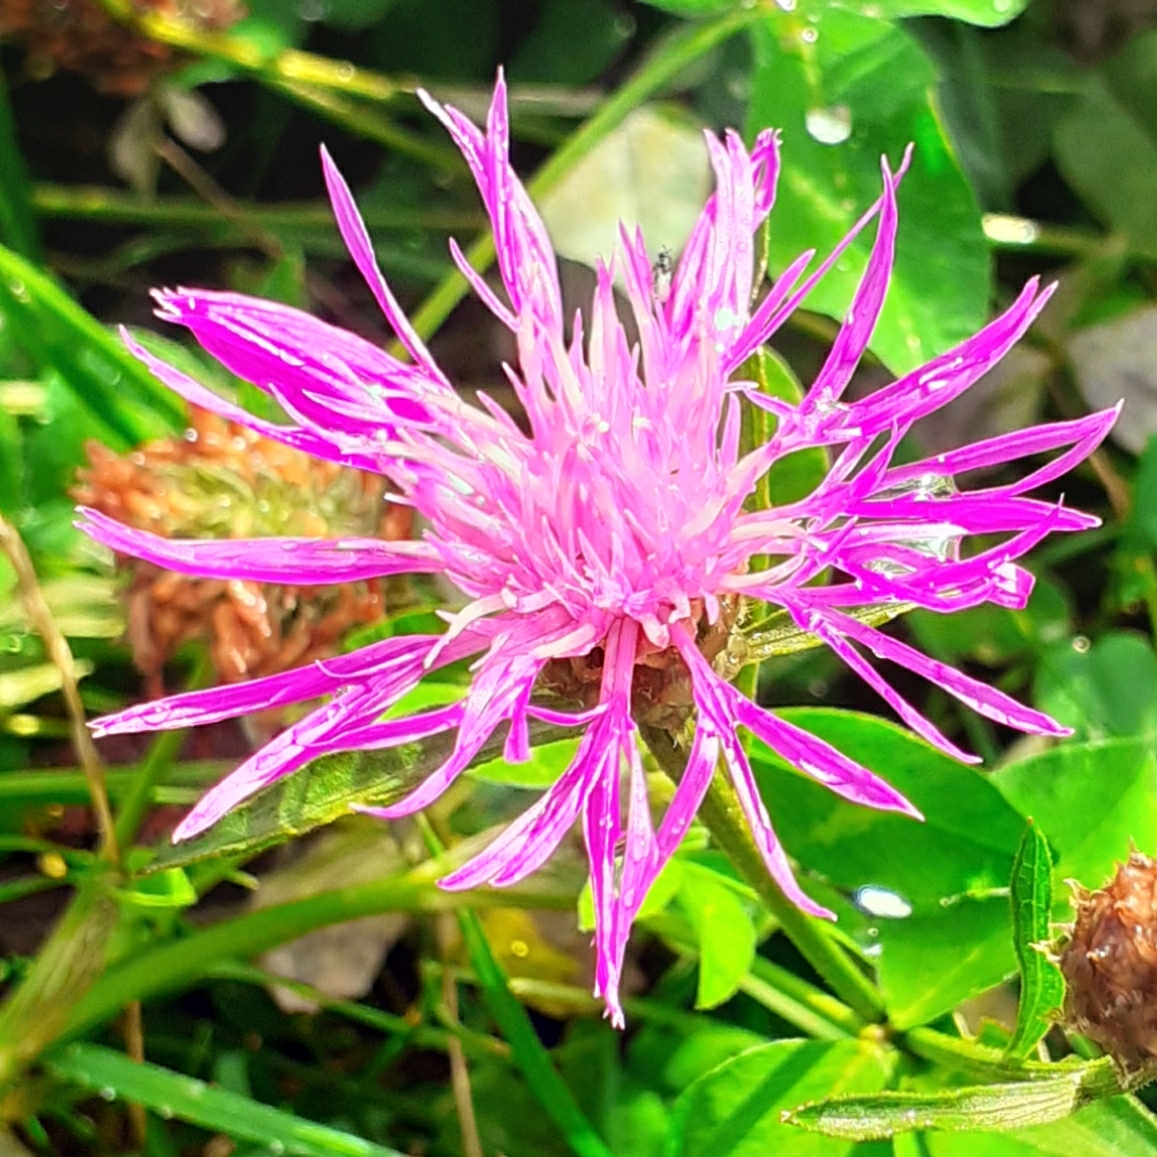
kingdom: Plantae
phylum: Tracheophyta
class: Magnoliopsida
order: Asterales
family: Asteraceae
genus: Centaurea
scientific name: Centaurea jacea
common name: Brown knapweed
